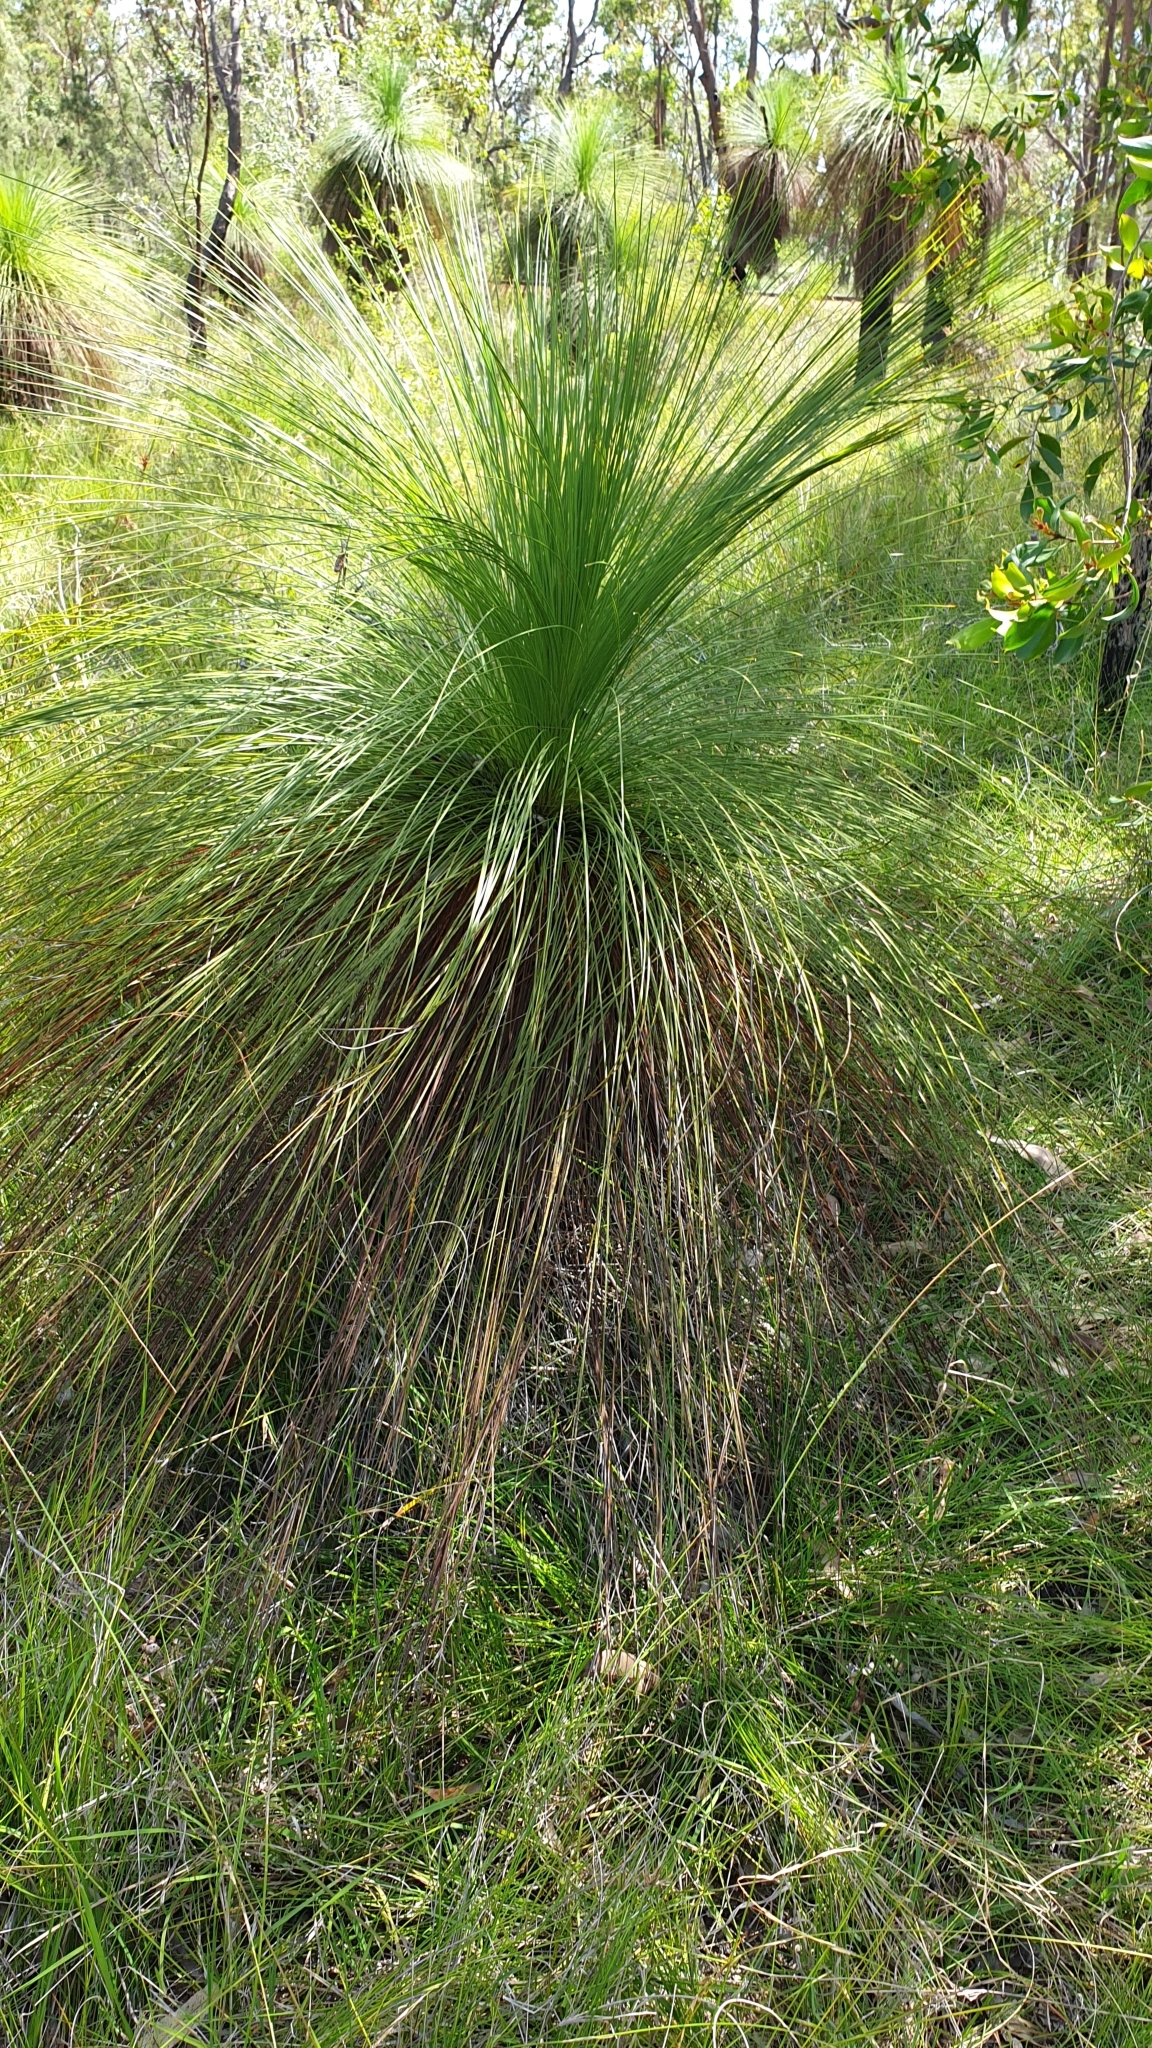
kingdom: Plantae
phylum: Tracheophyta
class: Liliopsida
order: Asparagales
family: Asphodelaceae
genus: Xanthorrhoea
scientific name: Xanthorrhoea johnsonii
